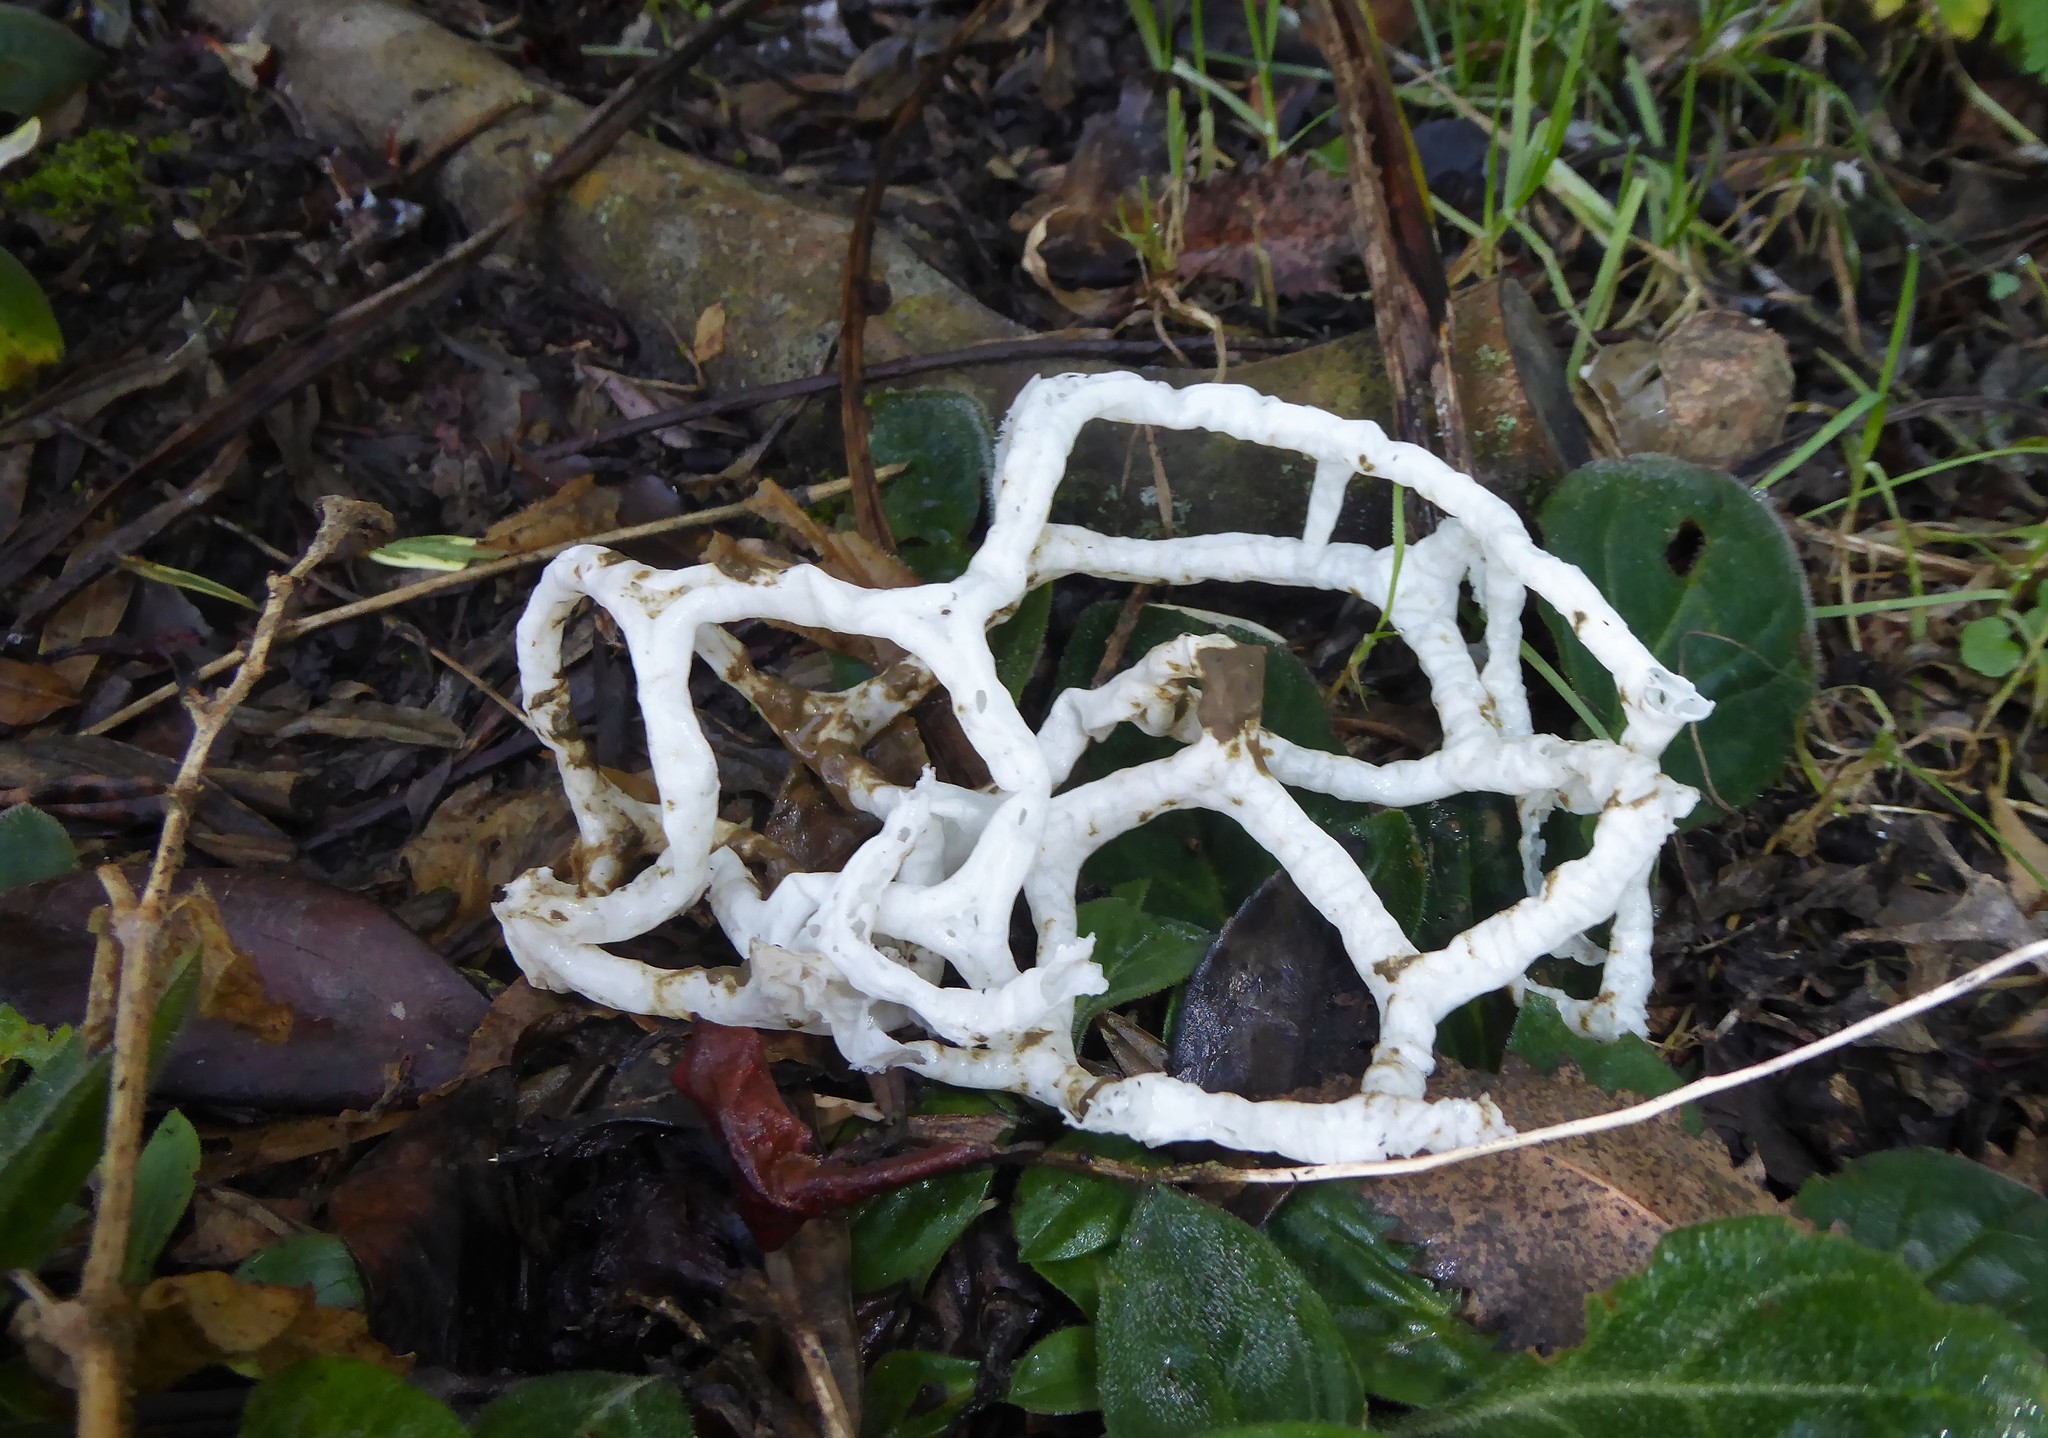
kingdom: Fungi
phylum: Basidiomycota
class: Agaricomycetes
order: Phallales
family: Phallaceae
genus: Ileodictyon
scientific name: Ileodictyon cibarium
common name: Basket fungus
